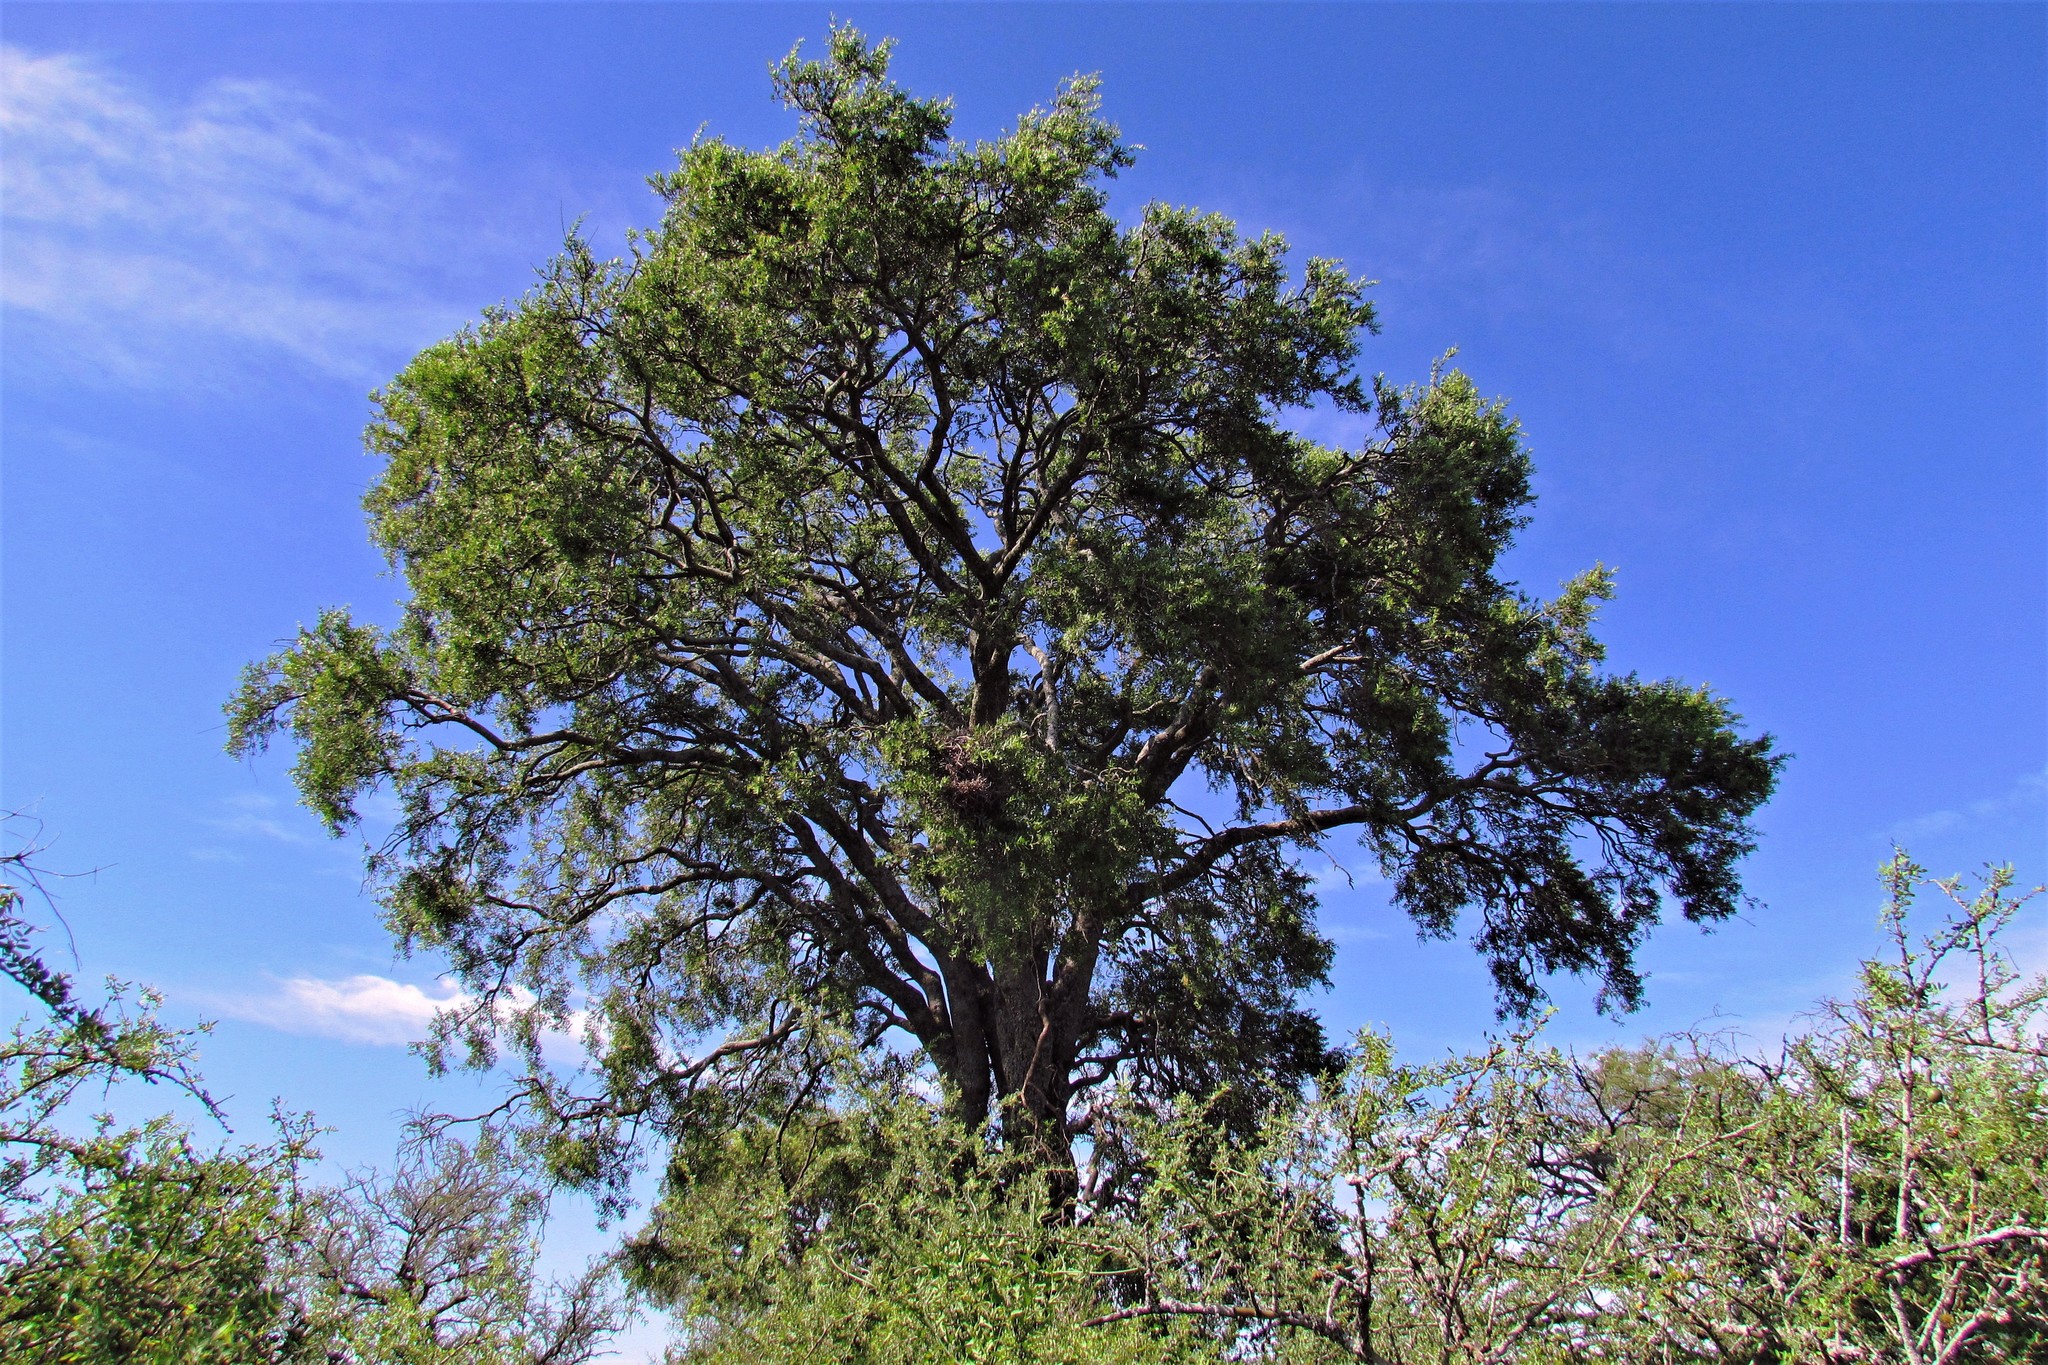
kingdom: Plantae
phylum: Tracheophyta
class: Magnoliopsida
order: Gentianales
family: Apocynaceae
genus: Aspidosperma
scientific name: Aspidosperma quebracho-blanco
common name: White quebracho
